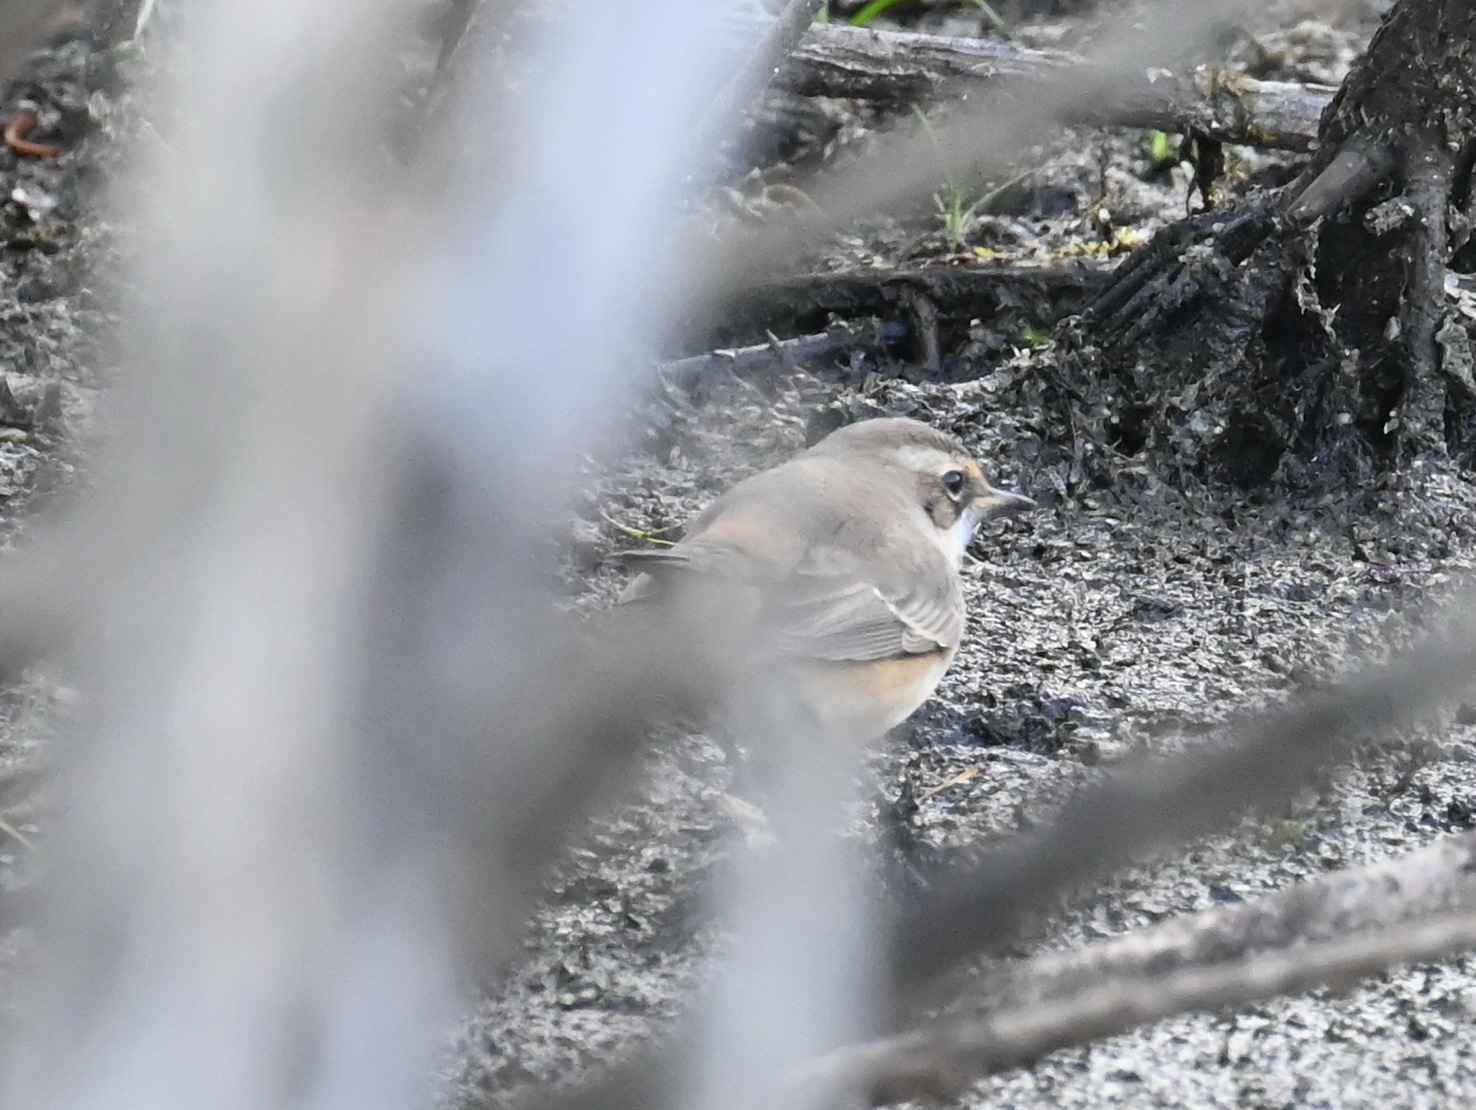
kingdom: Animalia
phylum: Chordata
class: Aves
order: Passeriformes
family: Muscicapidae
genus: Luscinia
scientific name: Luscinia svecica
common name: Bluethroat
